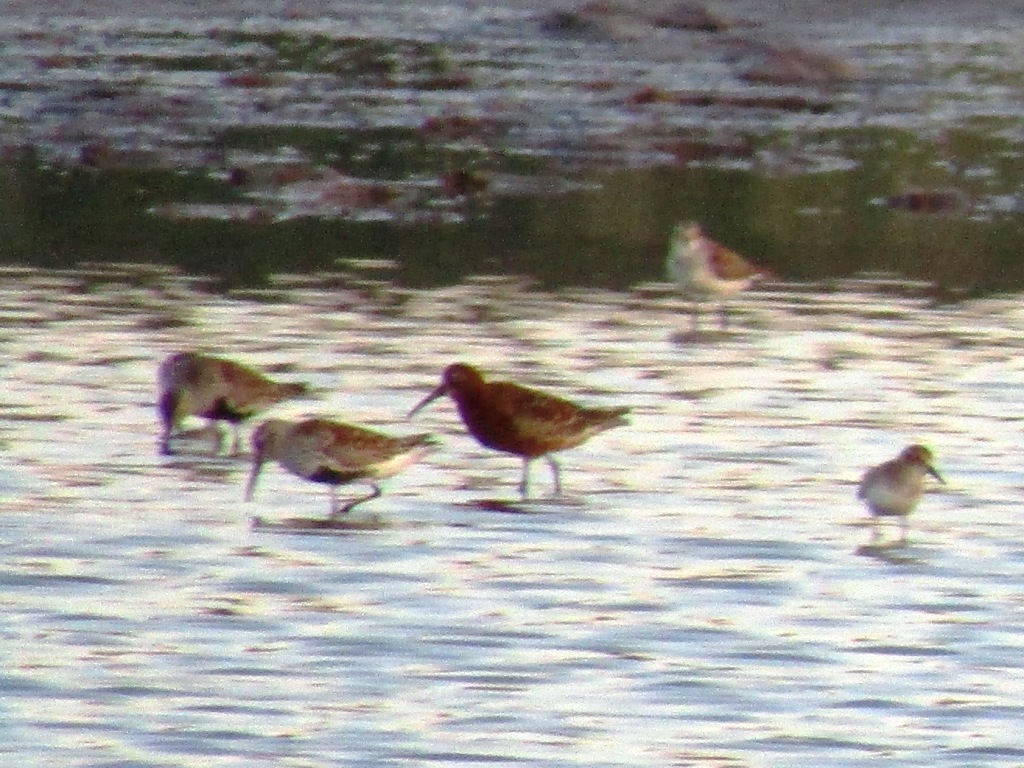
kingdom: Animalia
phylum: Chordata
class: Aves
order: Charadriiformes
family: Scolopacidae
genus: Calidris
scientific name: Calidris alpina
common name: Dunlin
